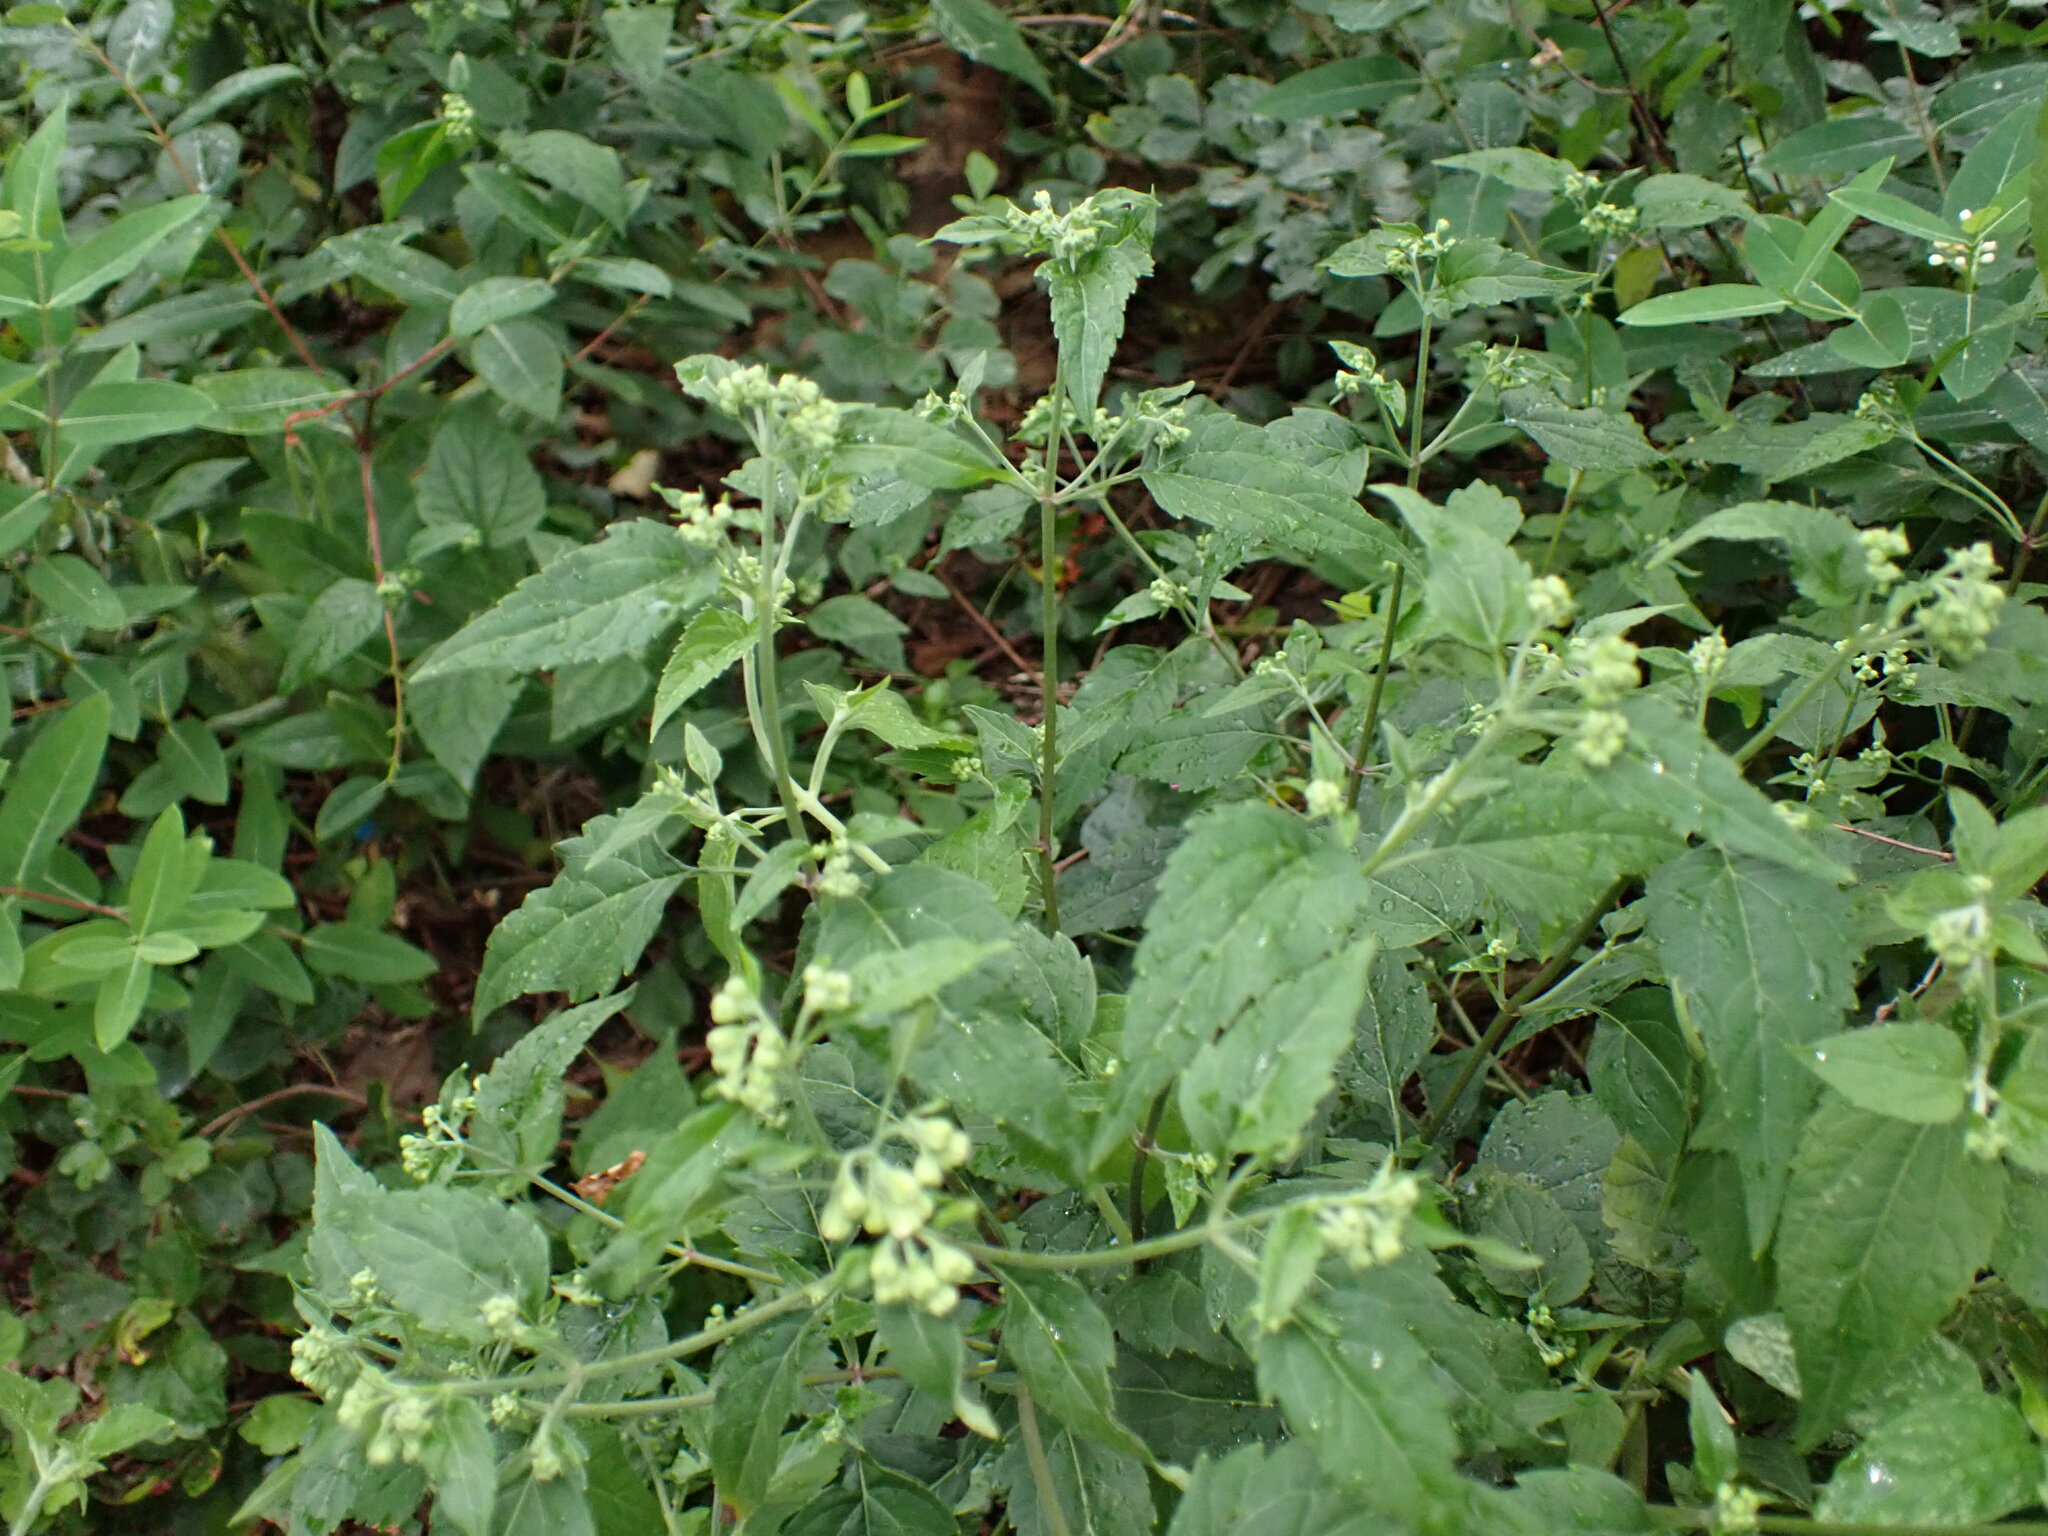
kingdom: Plantae
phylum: Tracheophyta
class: Magnoliopsida
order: Asterales
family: Asteraceae
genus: Ageratina
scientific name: Ageratina altissima
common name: White snakeroot
